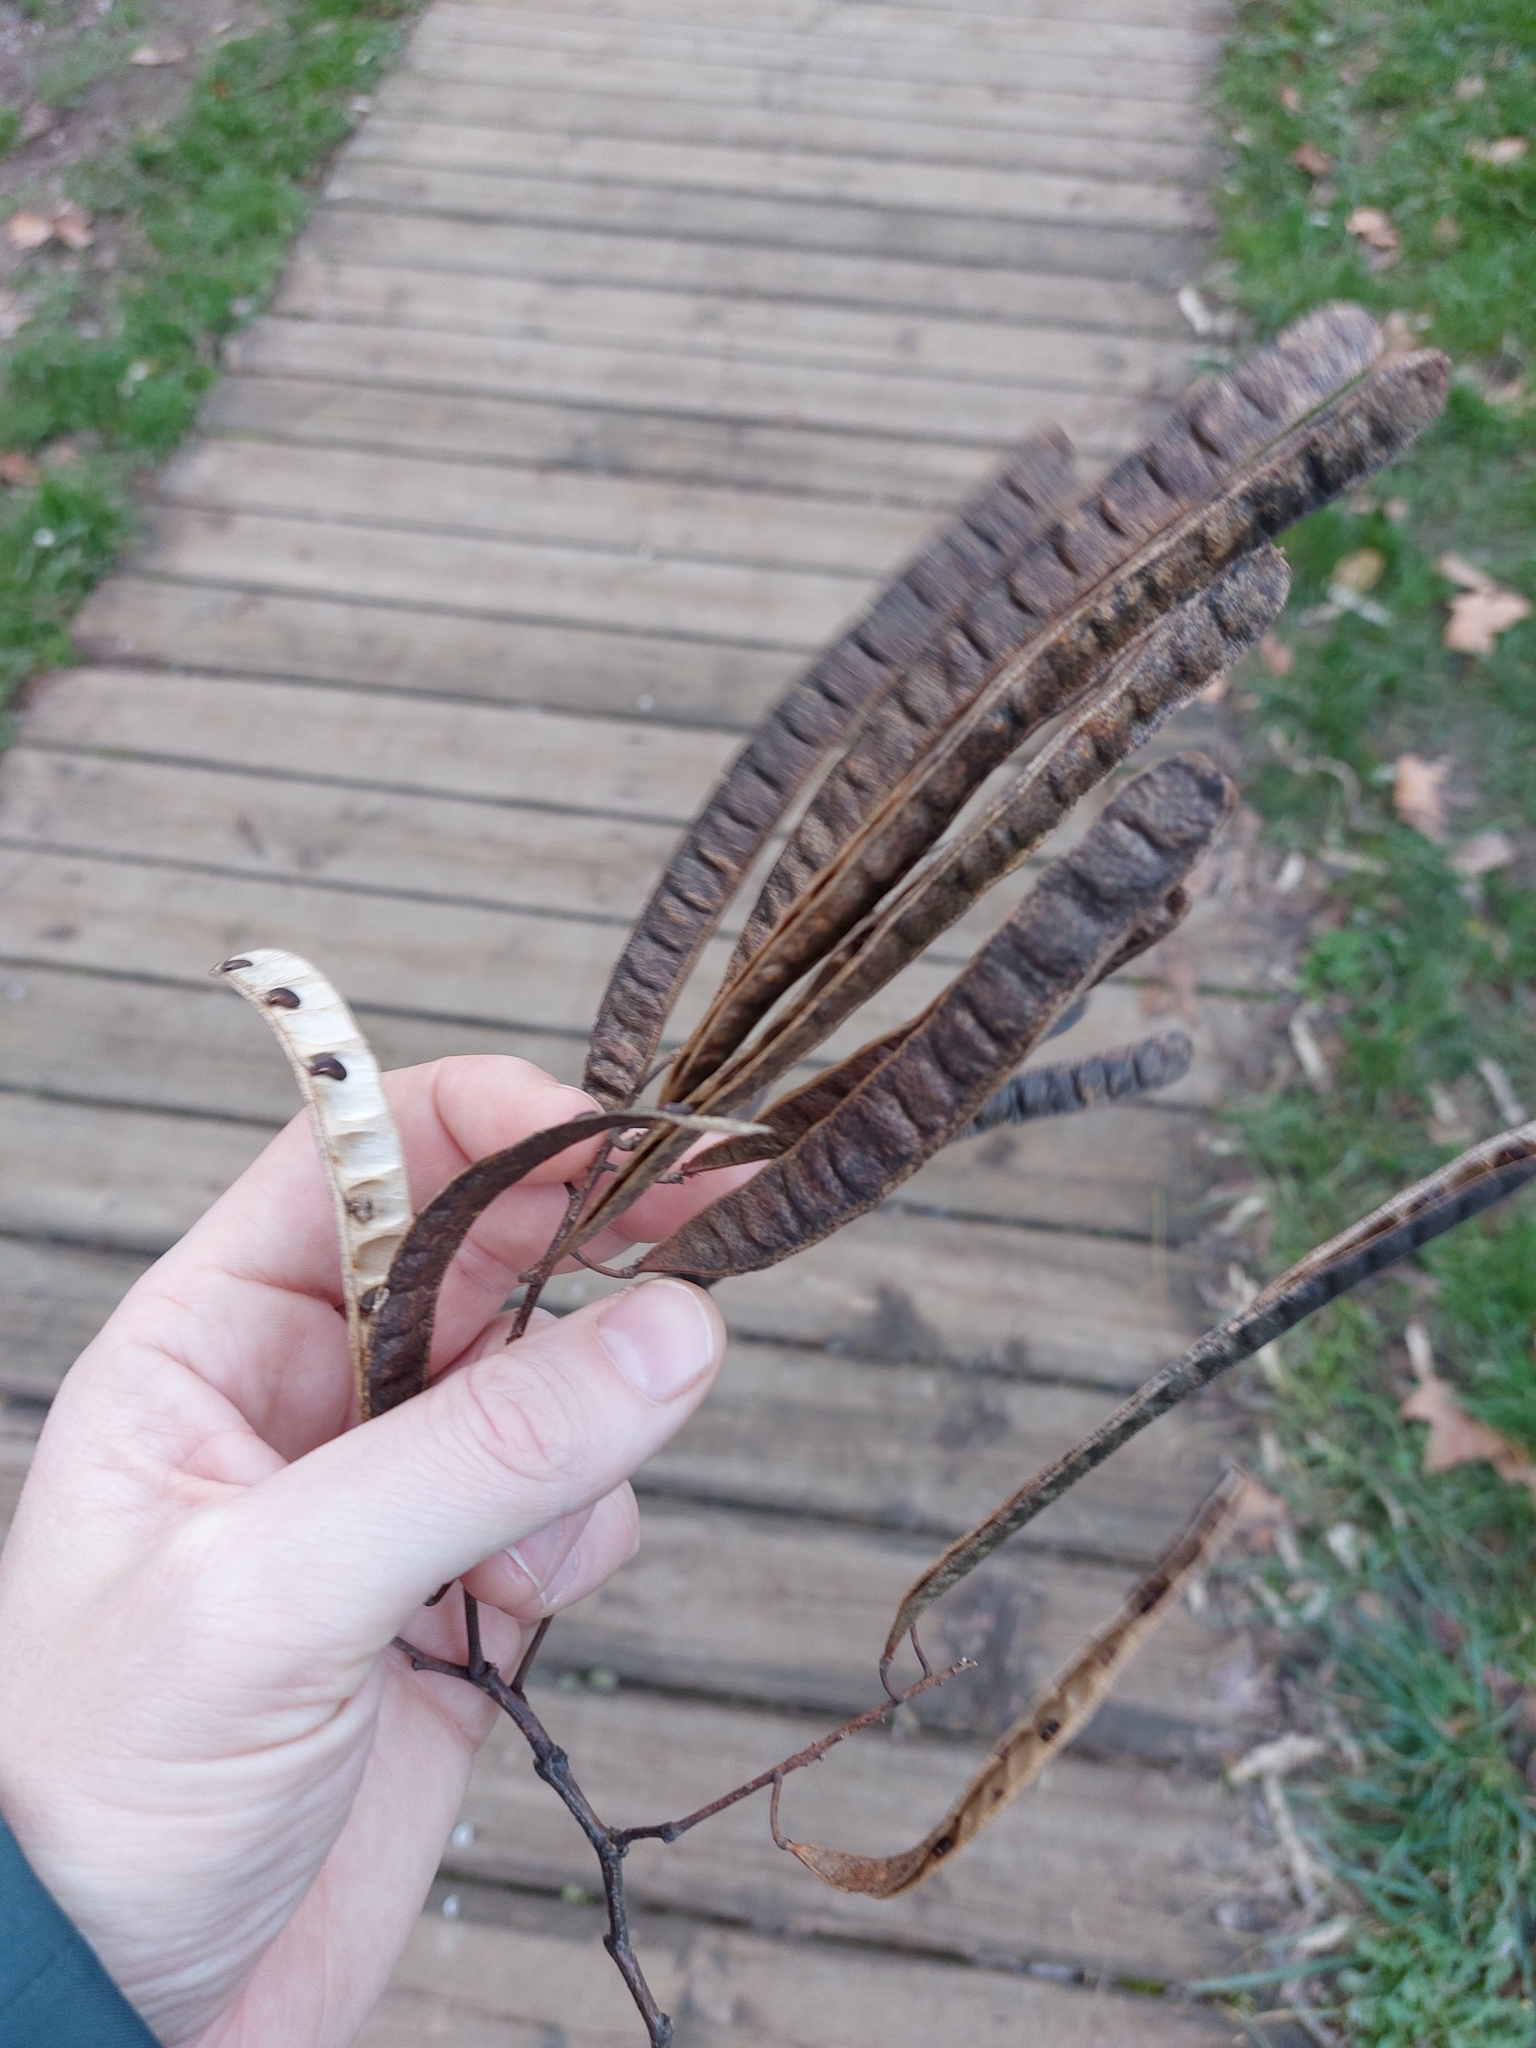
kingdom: Plantae
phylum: Tracheophyta
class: Magnoliopsida
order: Fabales
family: Fabaceae
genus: Robinia
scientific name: Robinia pseudoacacia
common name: Black locust
